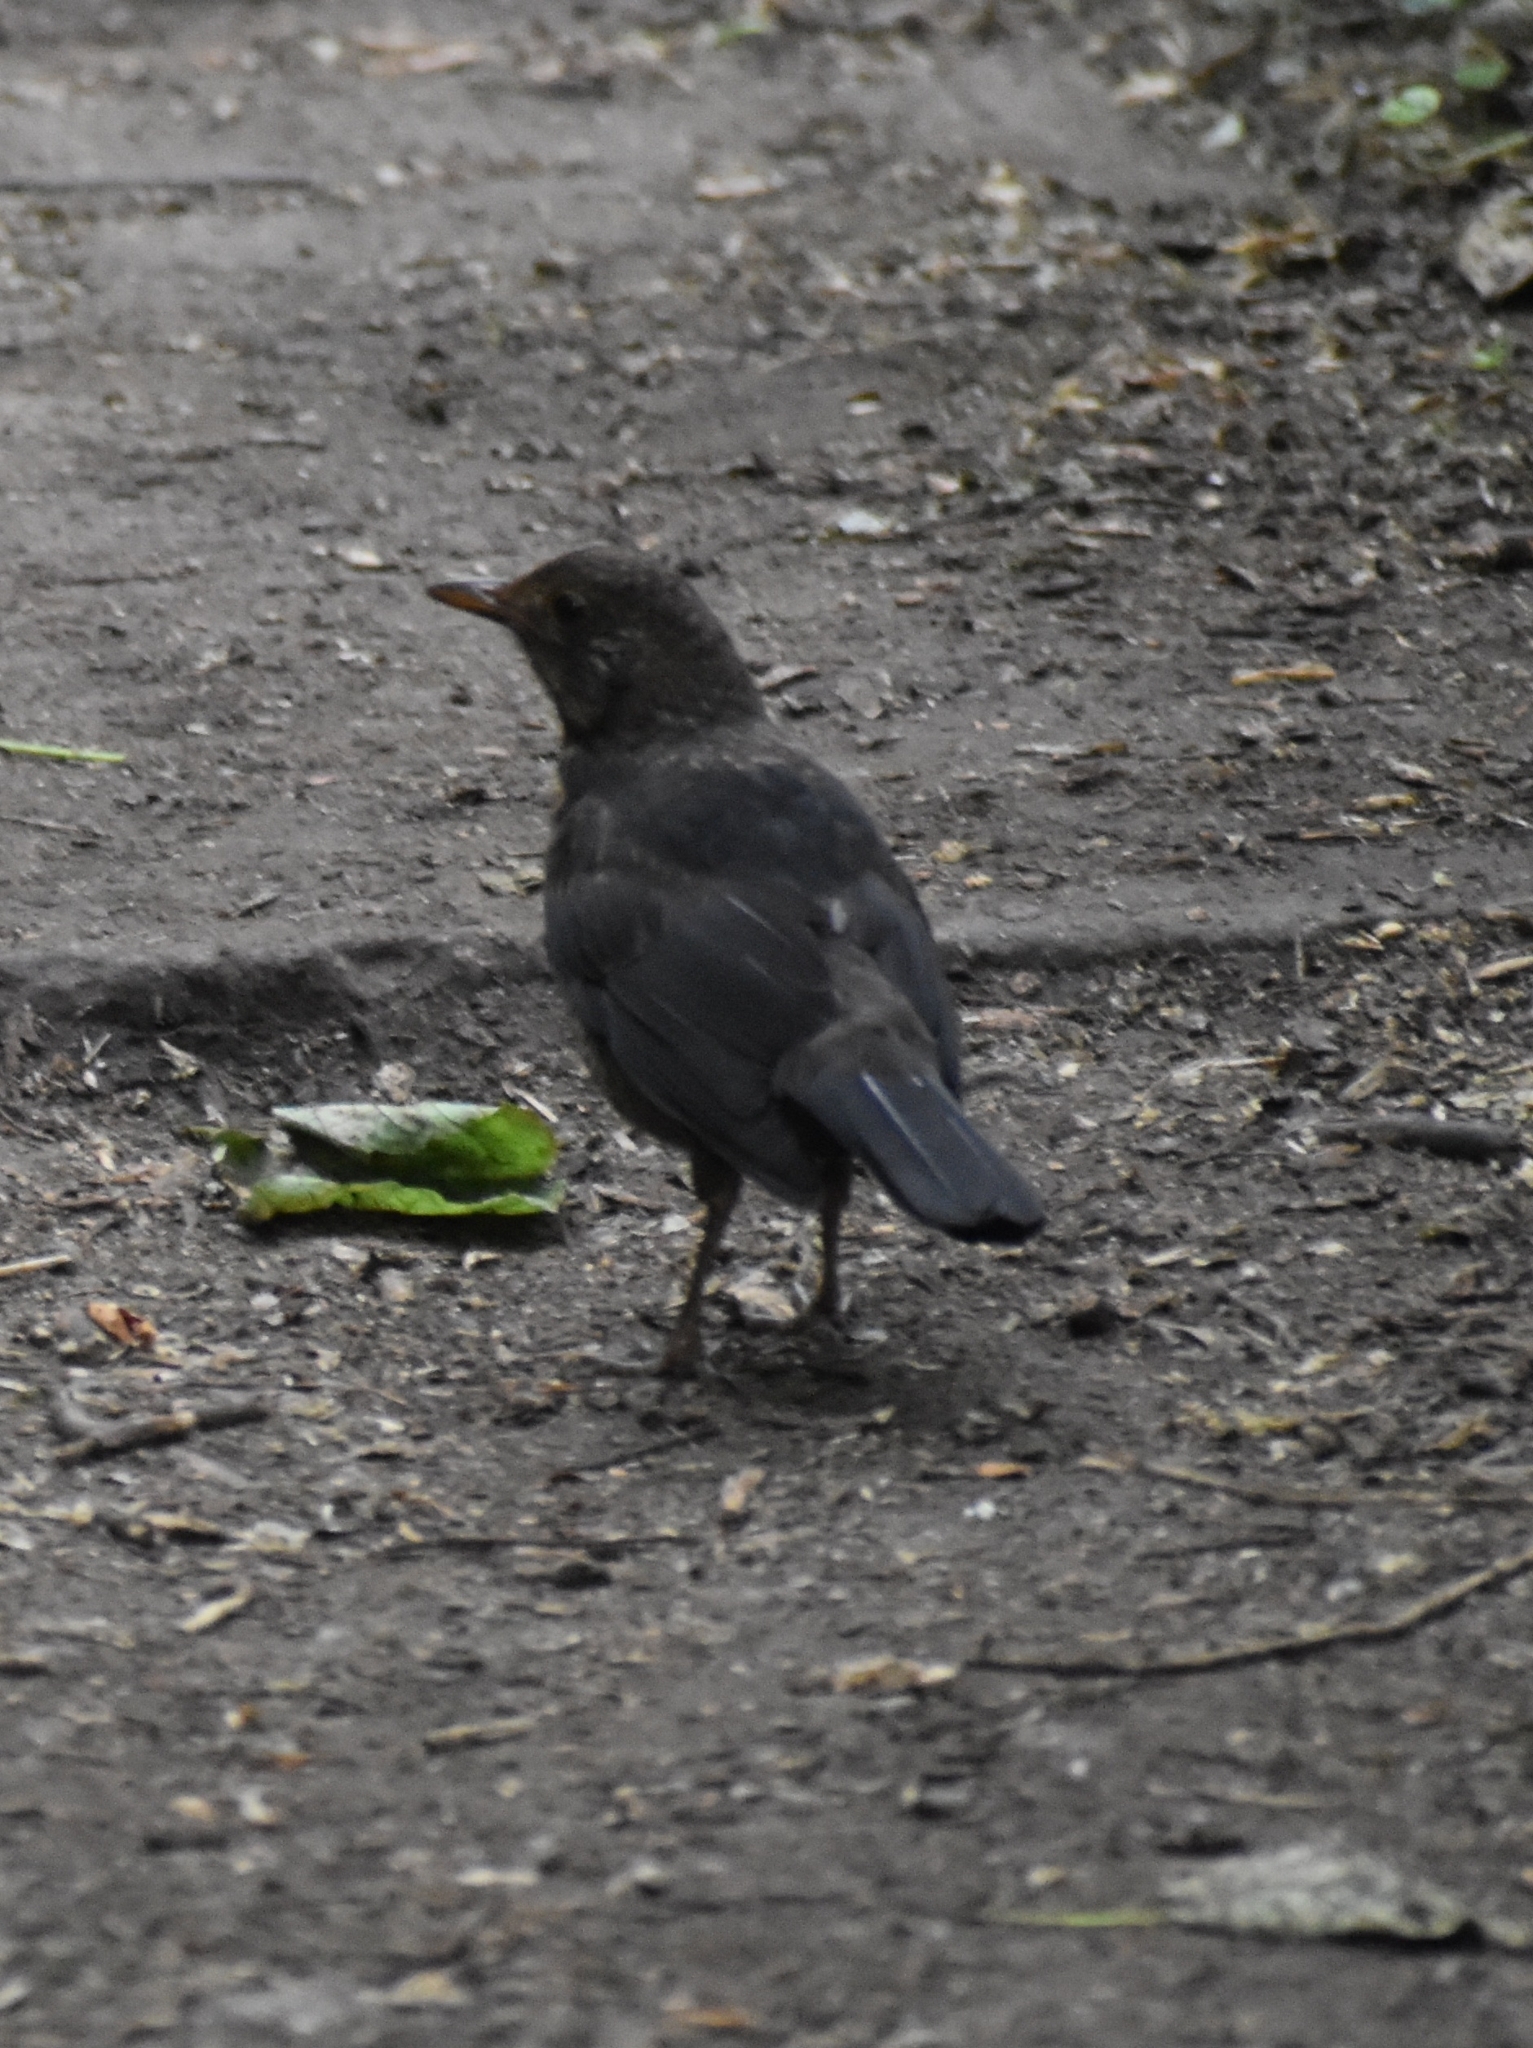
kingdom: Animalia
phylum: Chordata
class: Aves
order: Passeriformes
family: Turdidae
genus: Turdus
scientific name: Turdus merula
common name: Common blackbird
